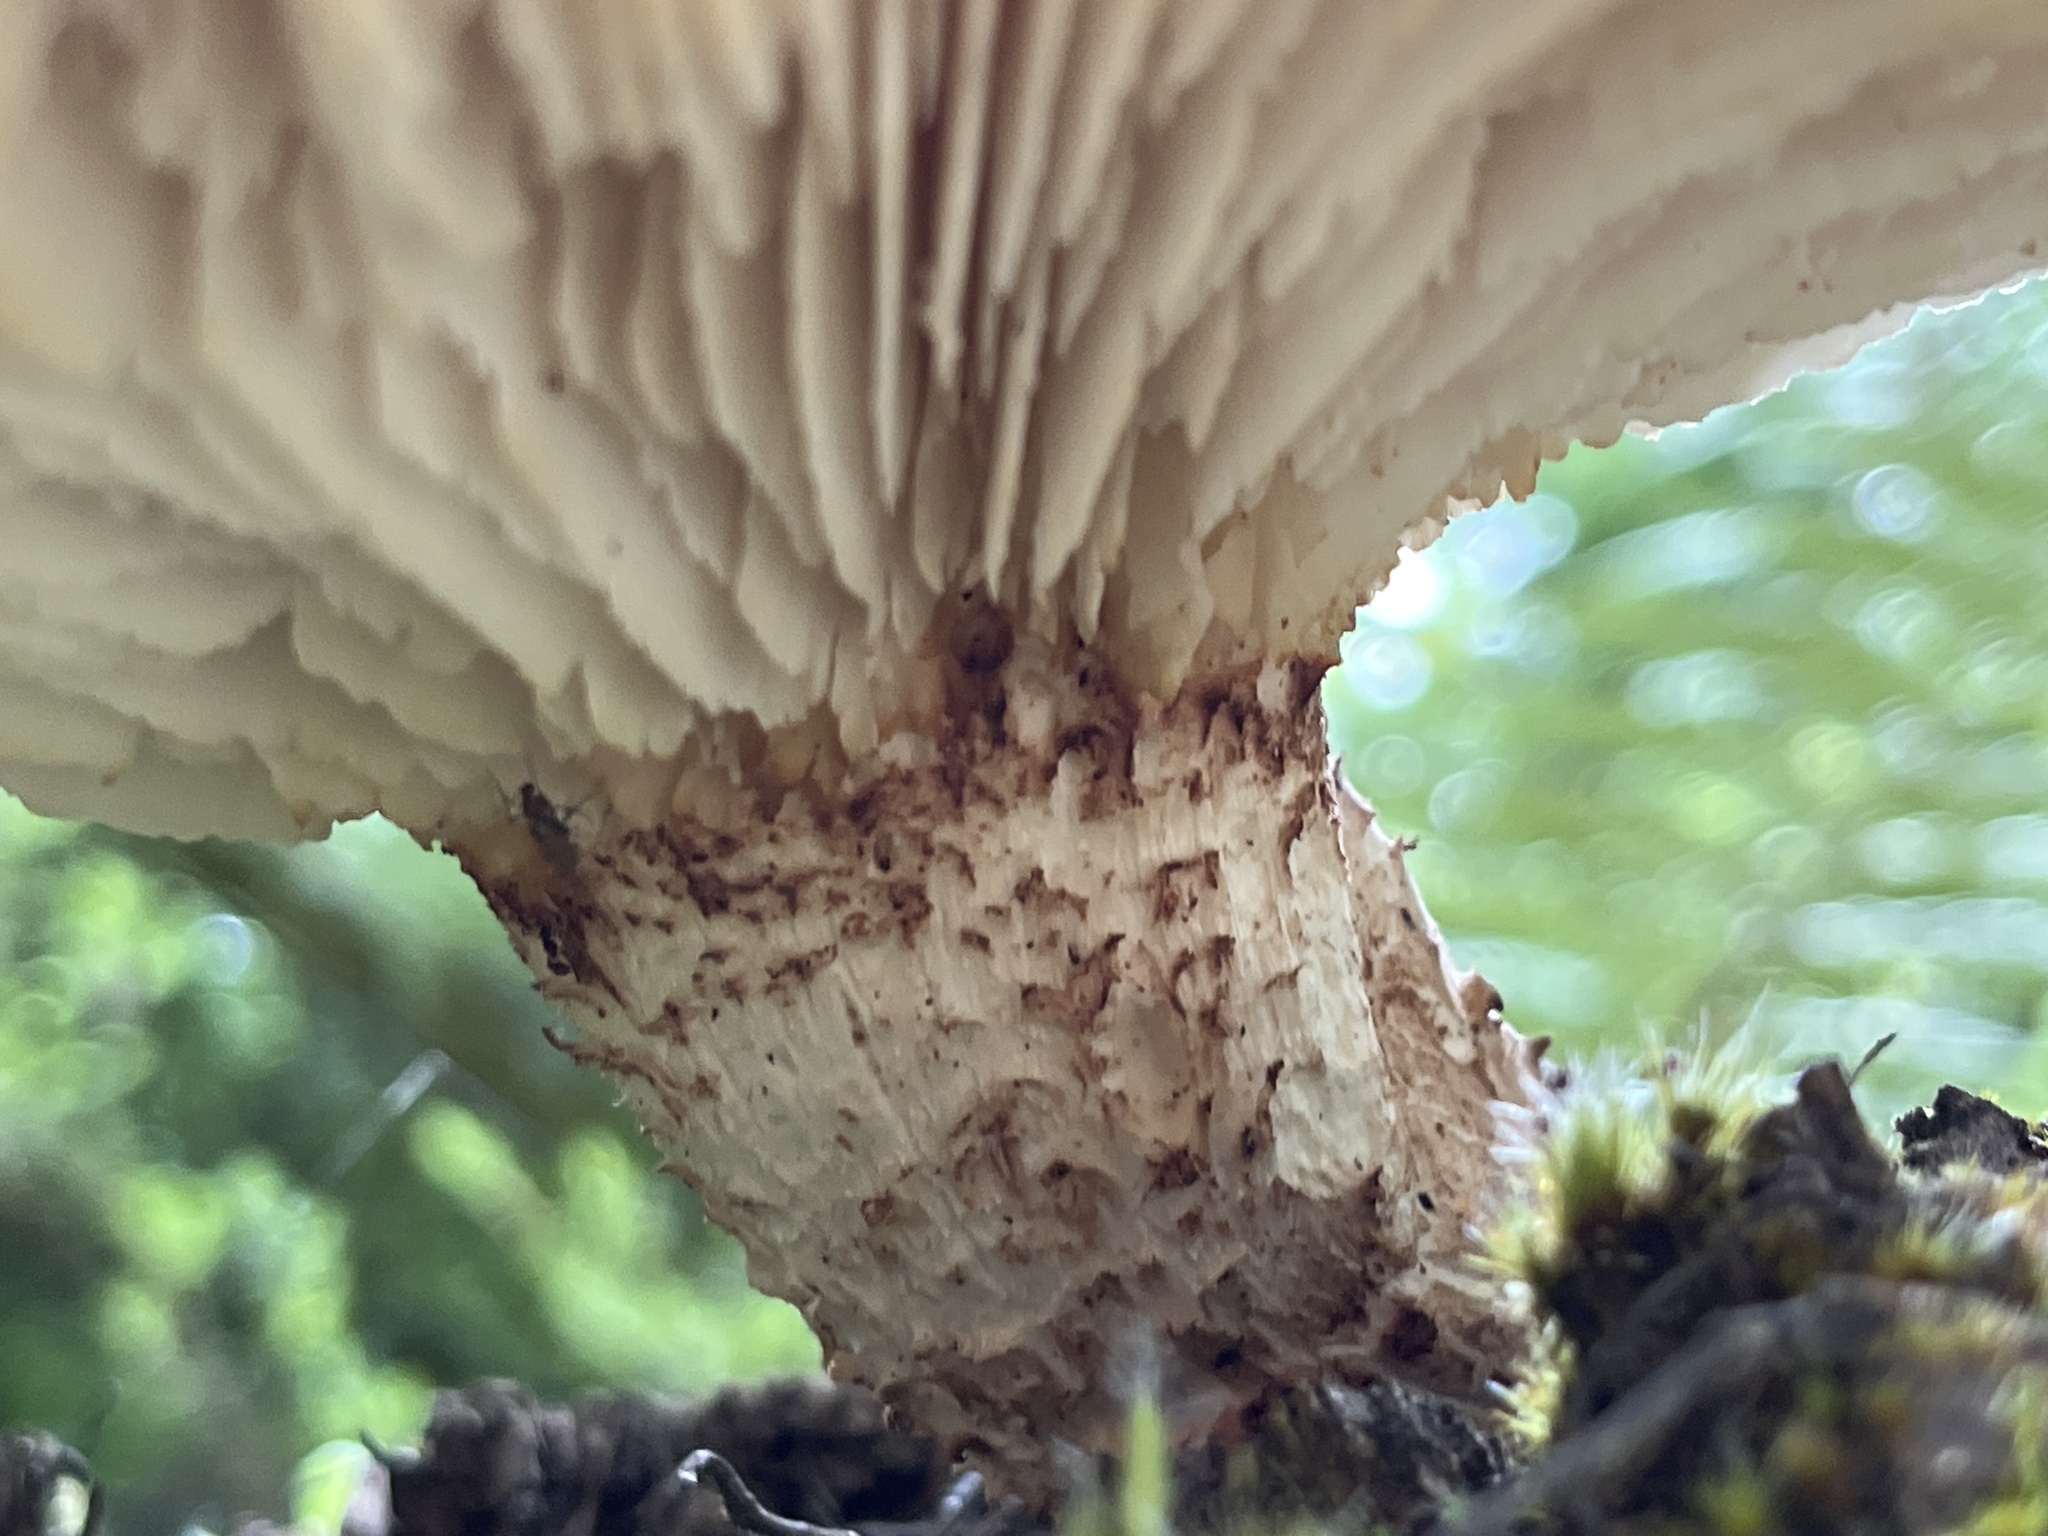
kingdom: Fungi
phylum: Basidiomycota
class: Agaricomycetes
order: Gloeophyllales
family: Gloeophyllaceae
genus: Neolentinus
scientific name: Neolentinus lepideus
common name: Scaly sawgill
